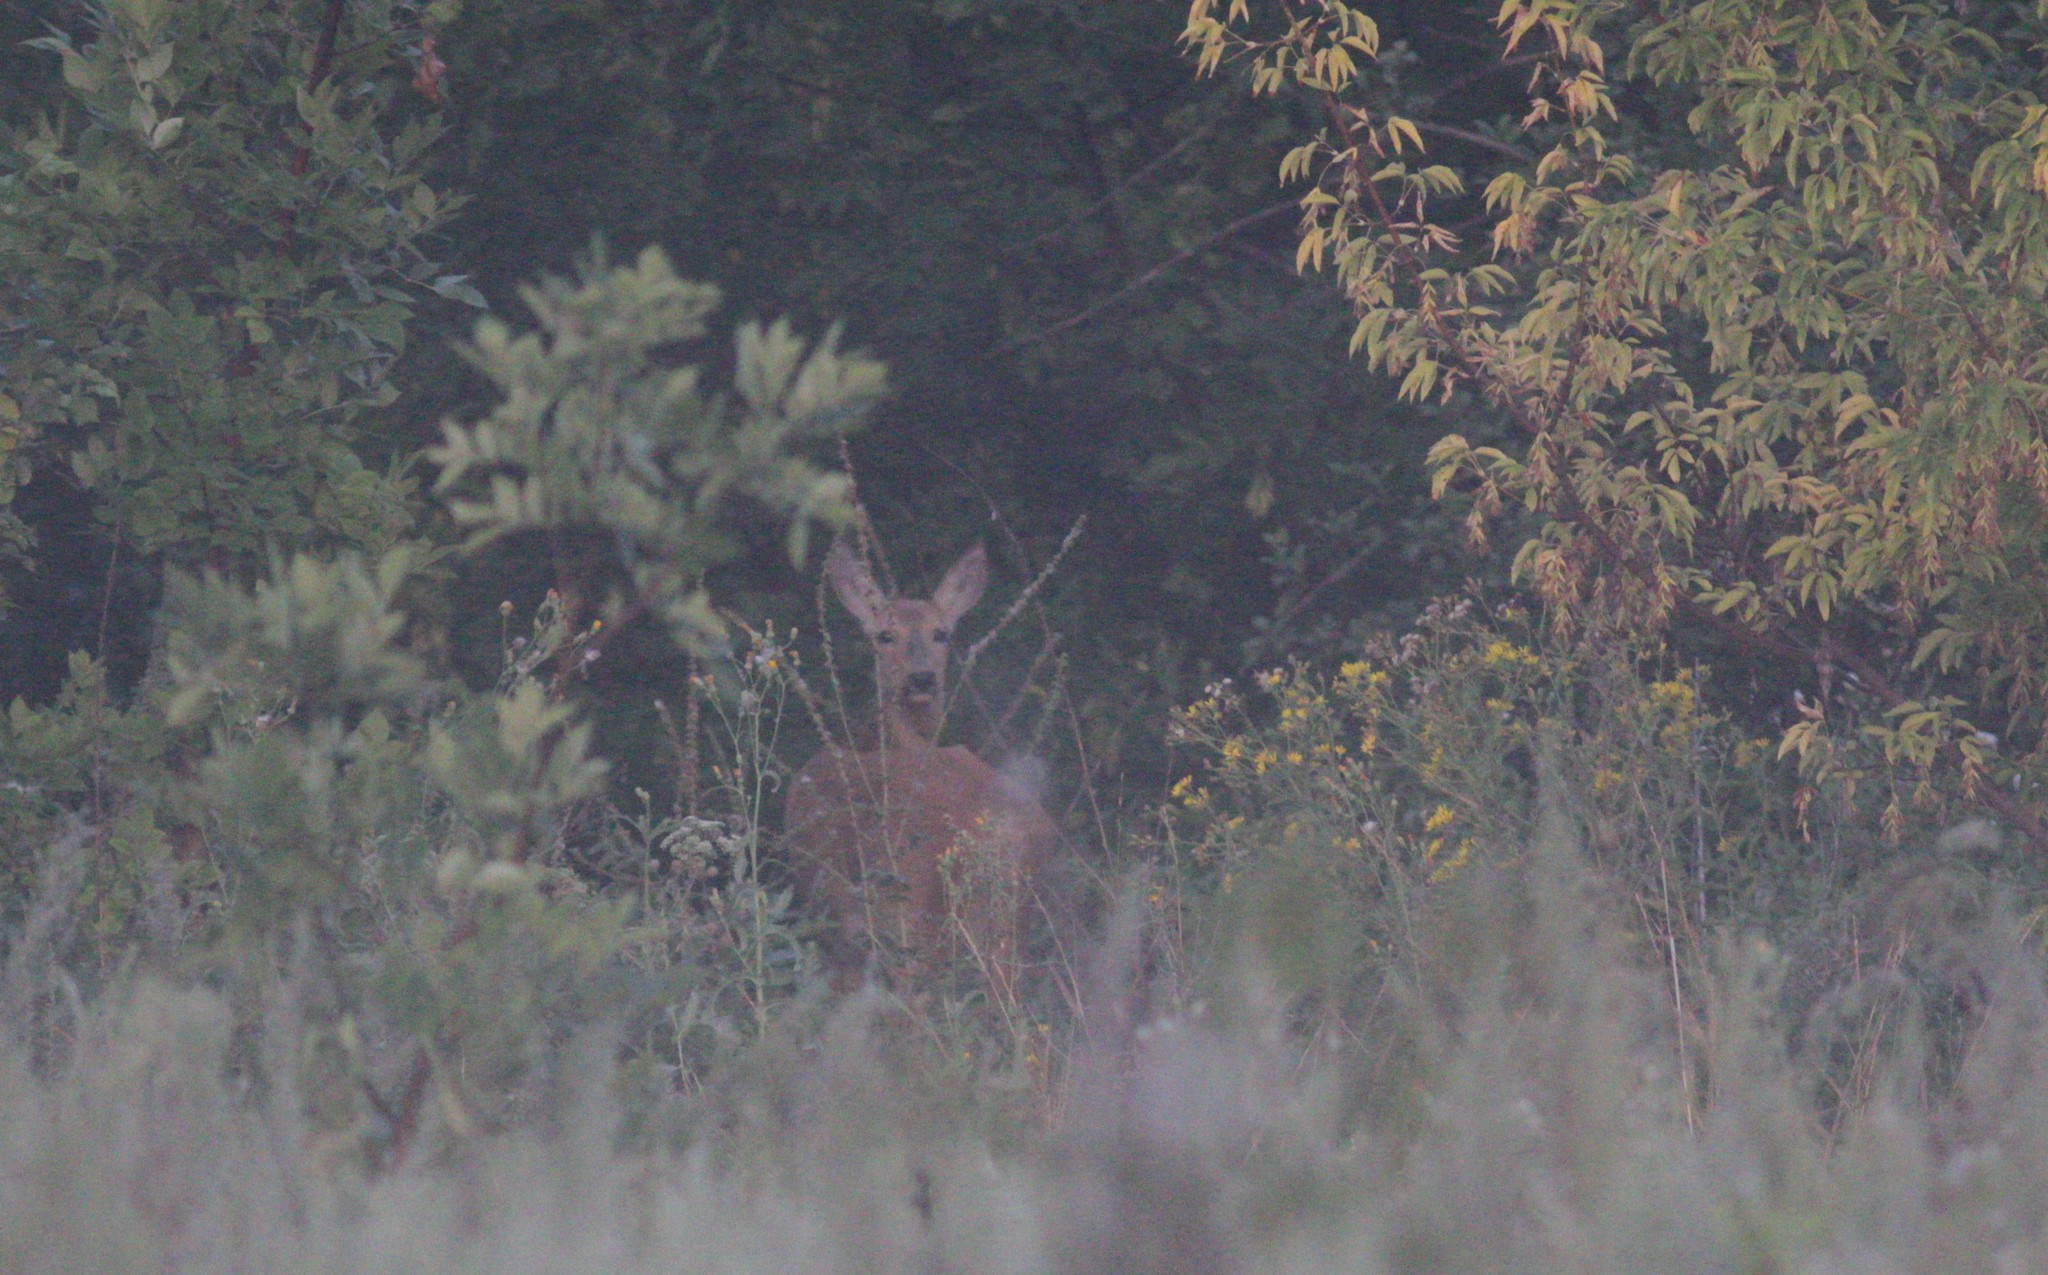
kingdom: Animalia
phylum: Chordata
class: Mammalia
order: Artiodactyla
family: Cervidae
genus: Capreolus
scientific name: Capreolus pygargus
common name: Siberian roe
